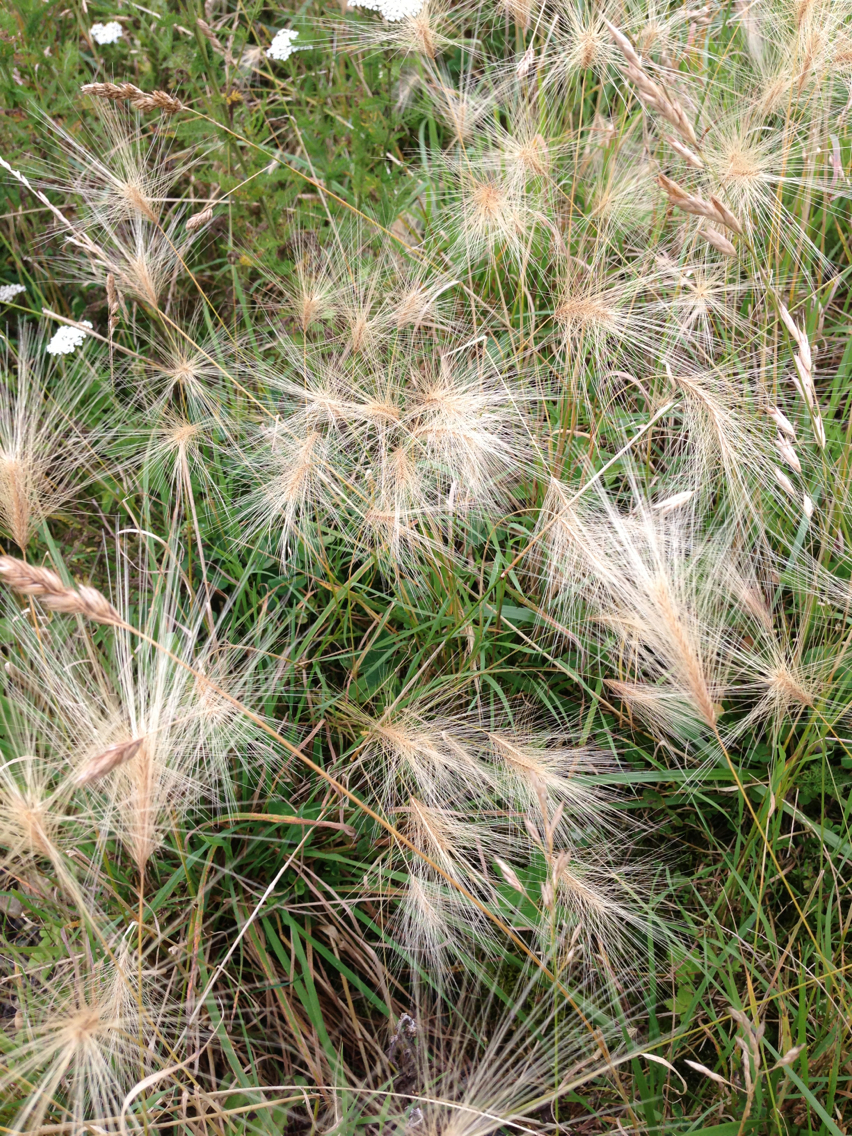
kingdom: Plantae
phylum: Tracheophyta
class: Liliopsida
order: Poales
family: Poaceae
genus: Hordeum
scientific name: Hordeum jubatum
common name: Foxtail barley
